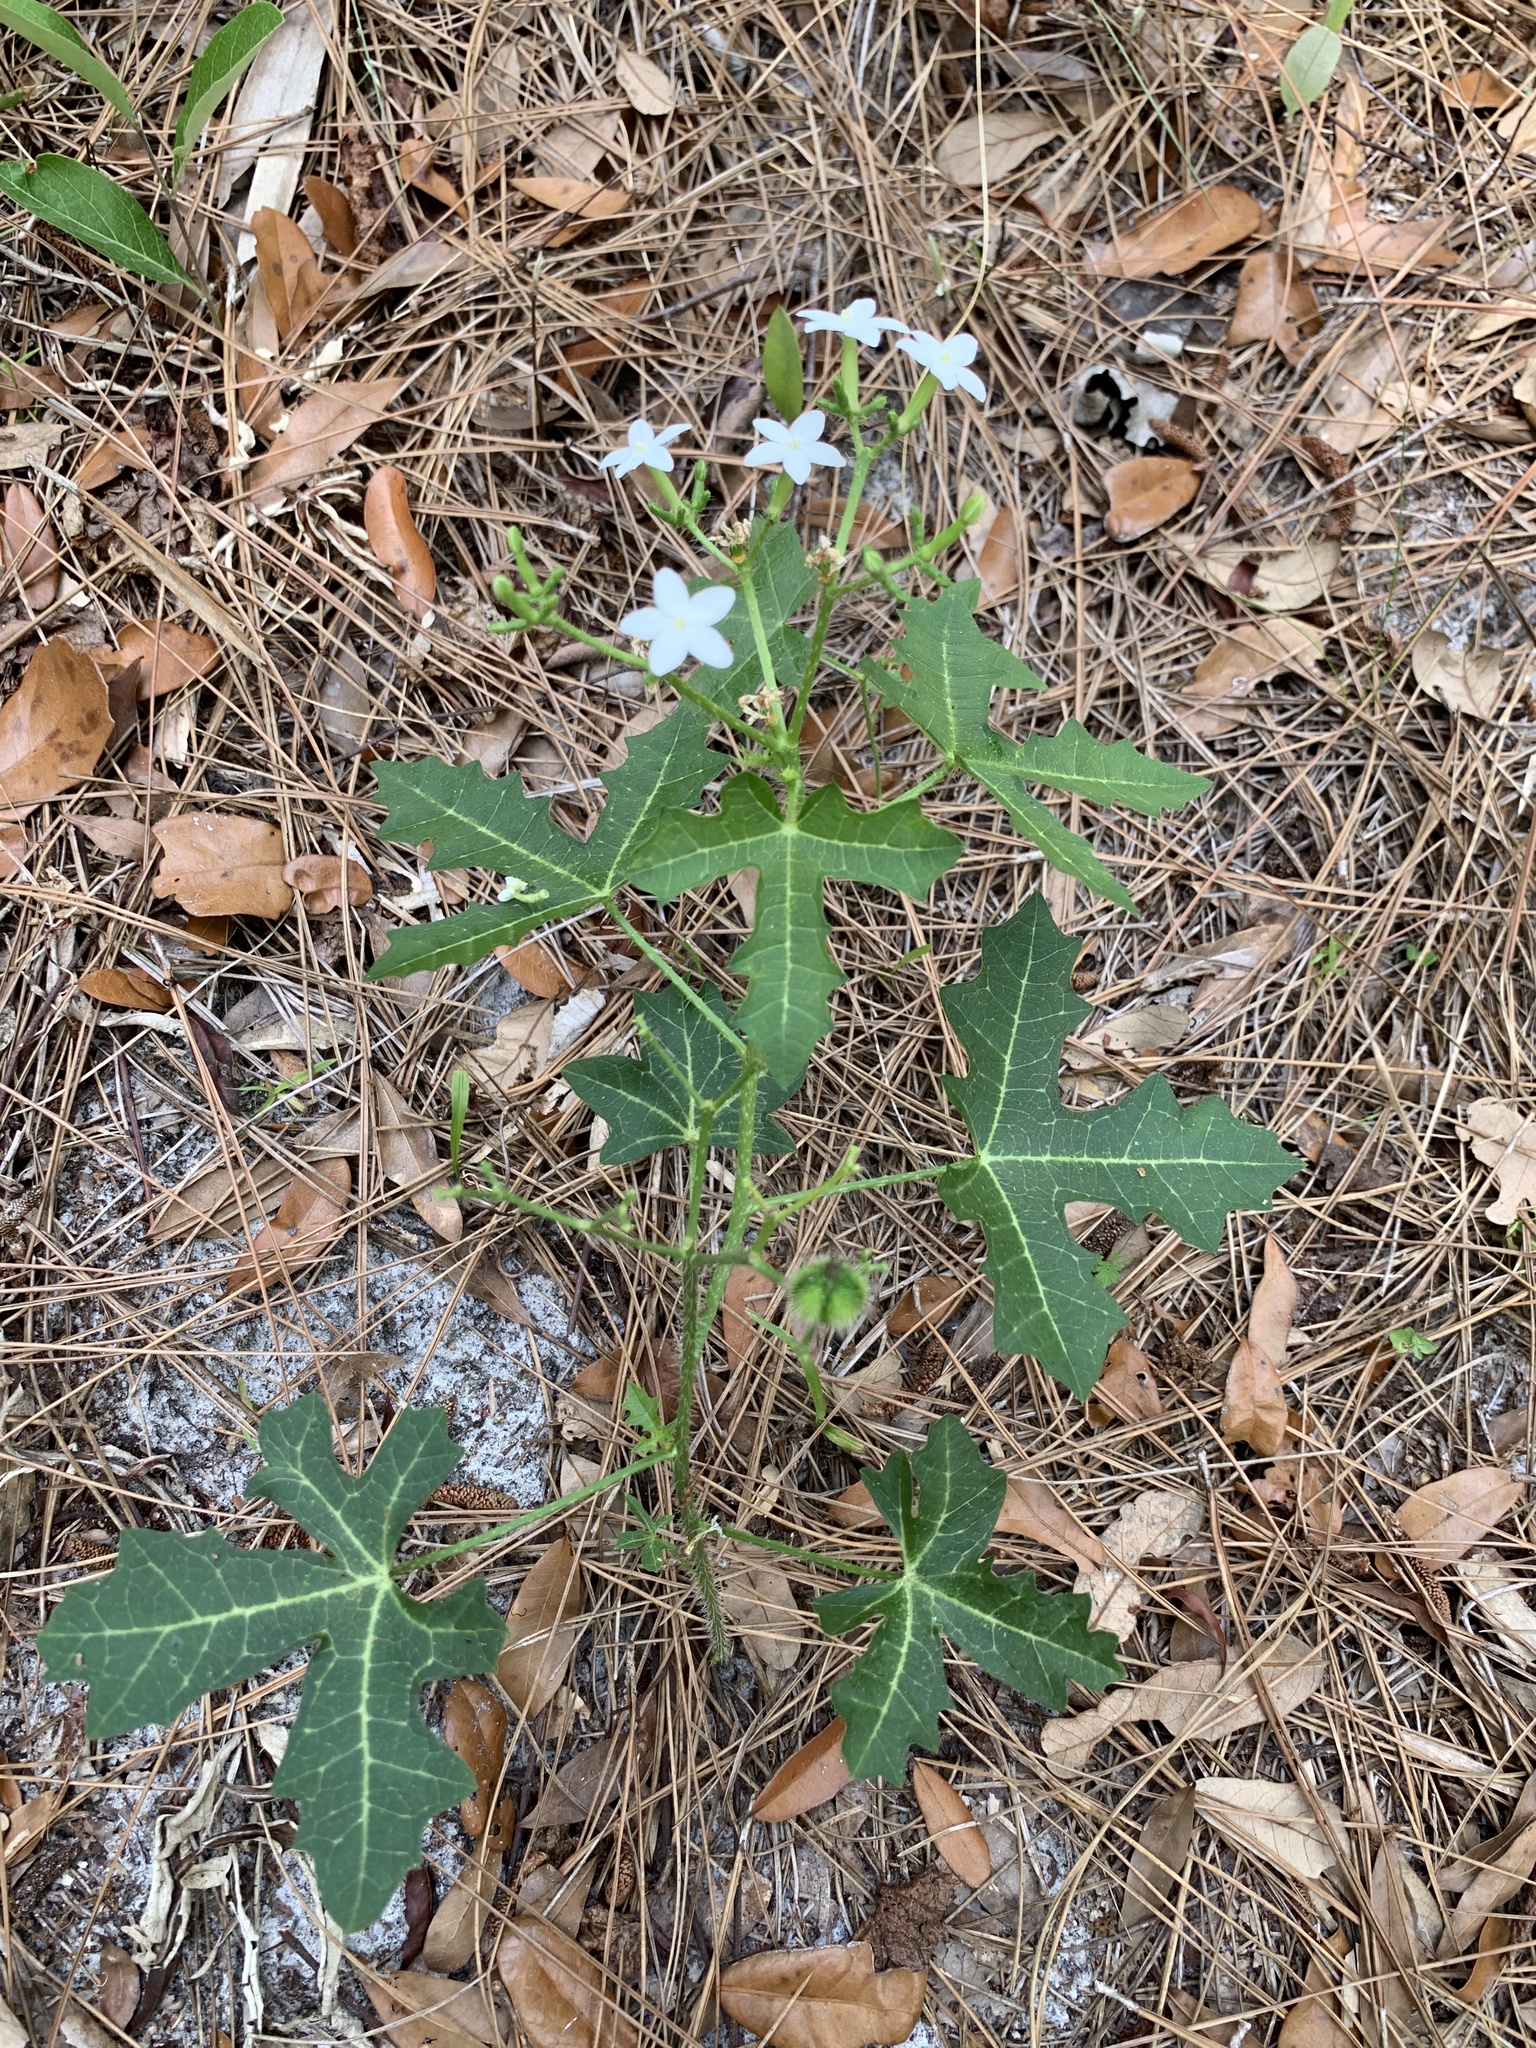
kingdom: Plantae
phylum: Tracheophyta
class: Magnoliopsida
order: Malpighiales
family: Euphorbiaceae
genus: Cnidoscolus
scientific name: Cnidoscolus stimulosus
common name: Bull-nettle
